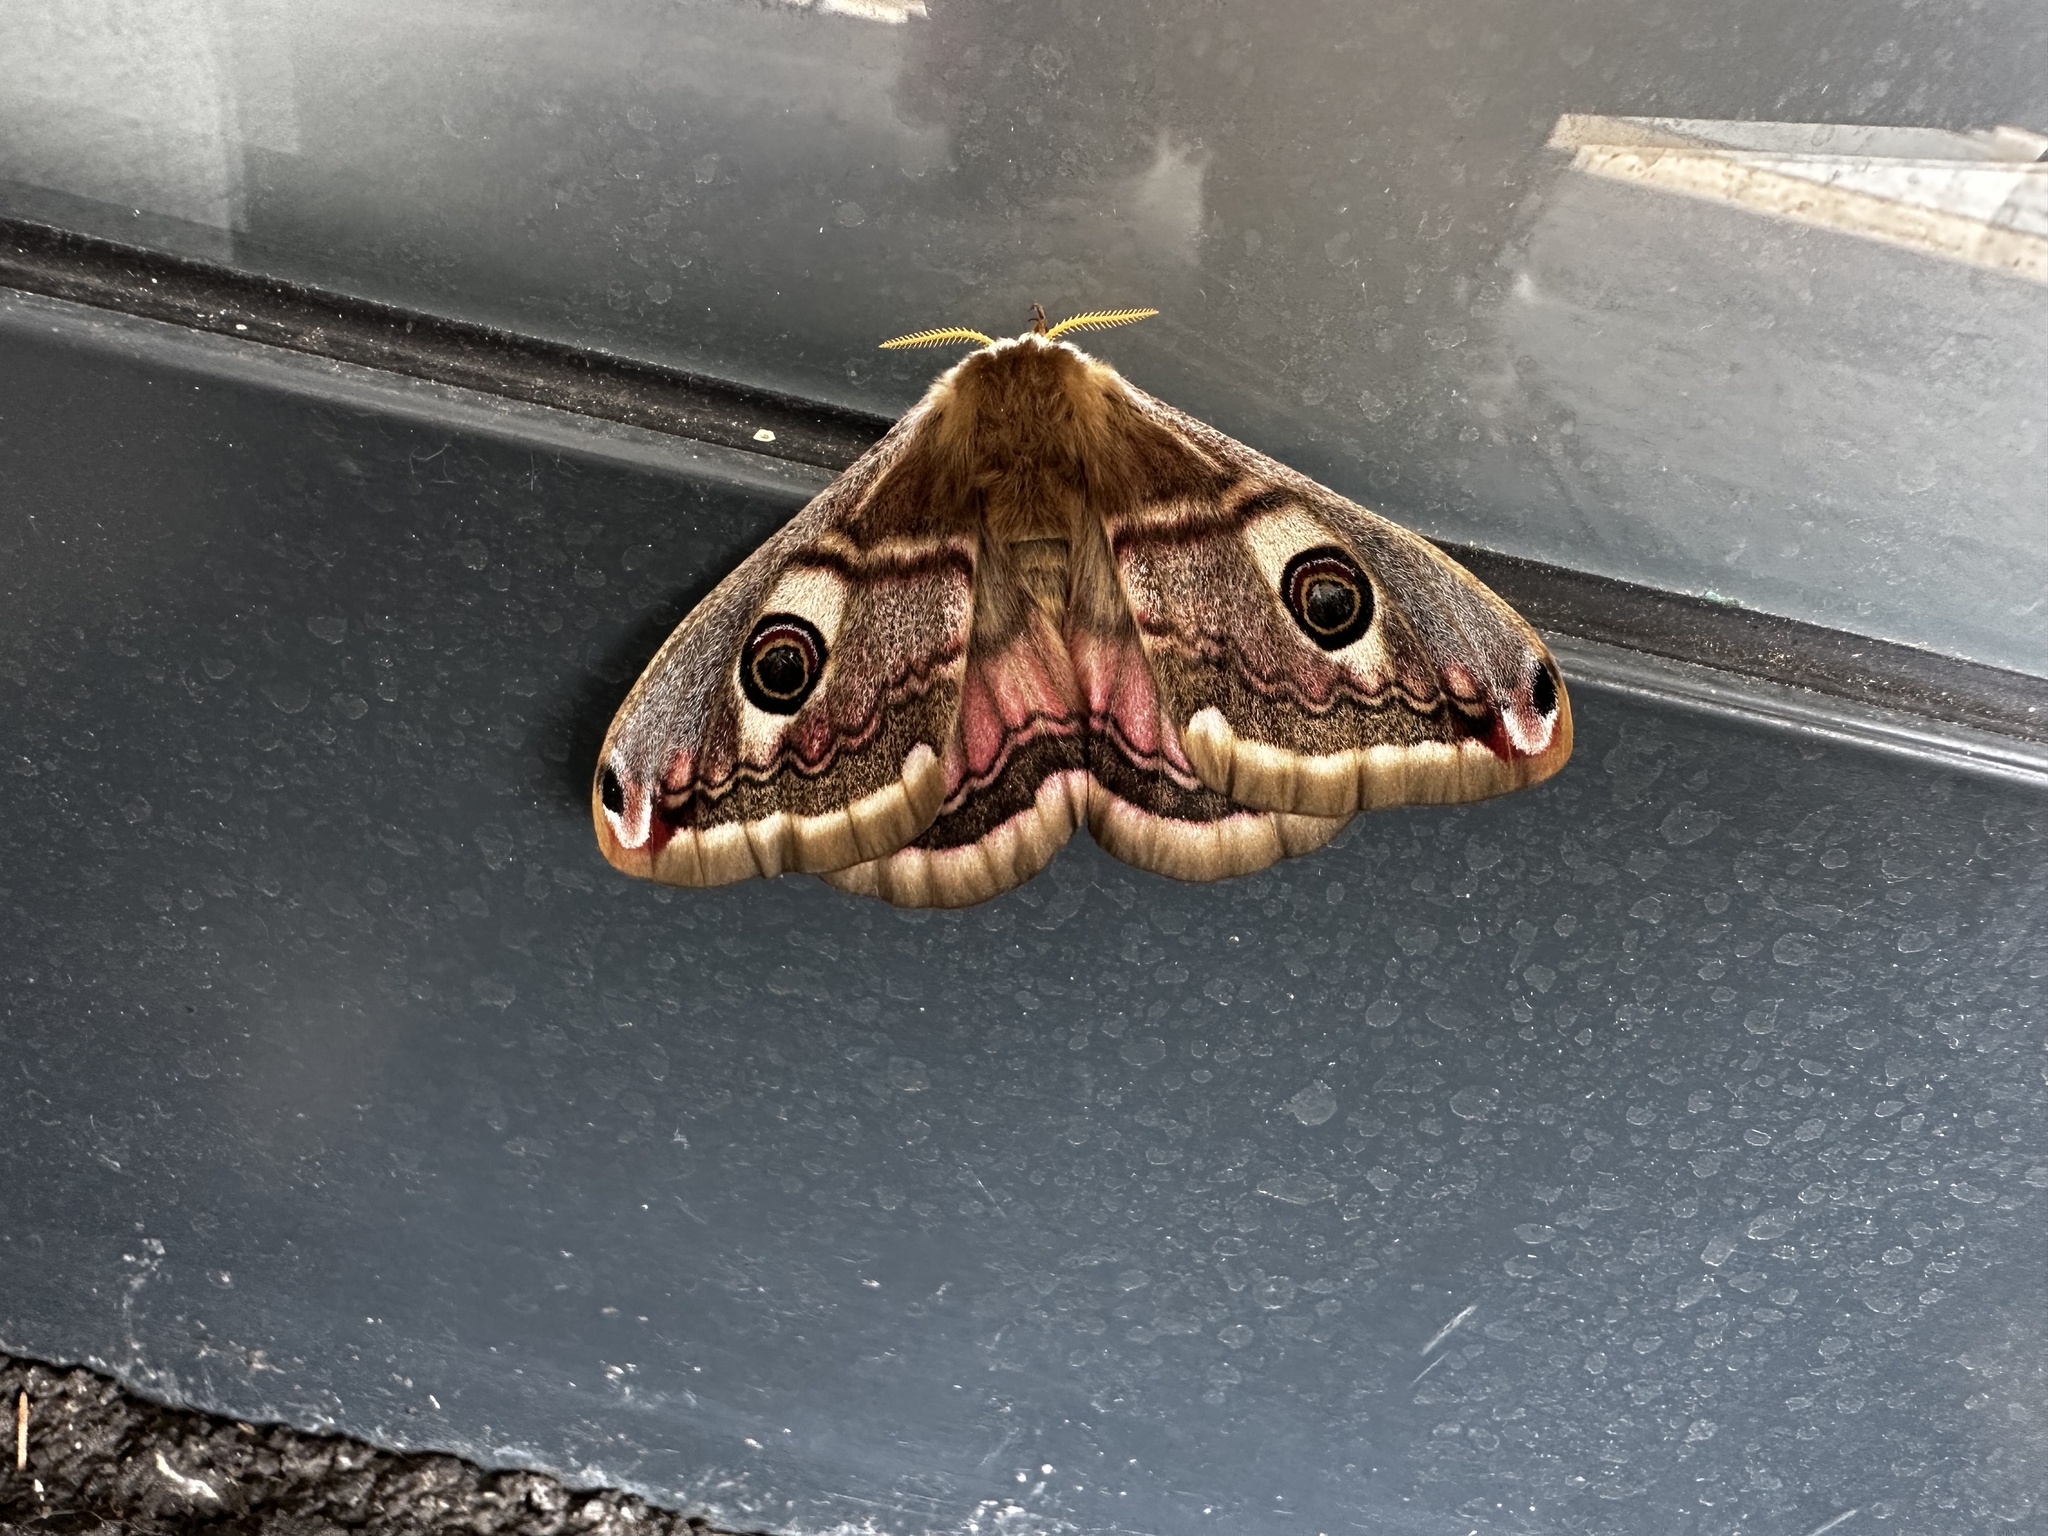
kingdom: Animalia
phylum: Arthropoda
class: Insecta
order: Lepidoptera
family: Saturniidae
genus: Saturnia
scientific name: Saturnia pavoniella
